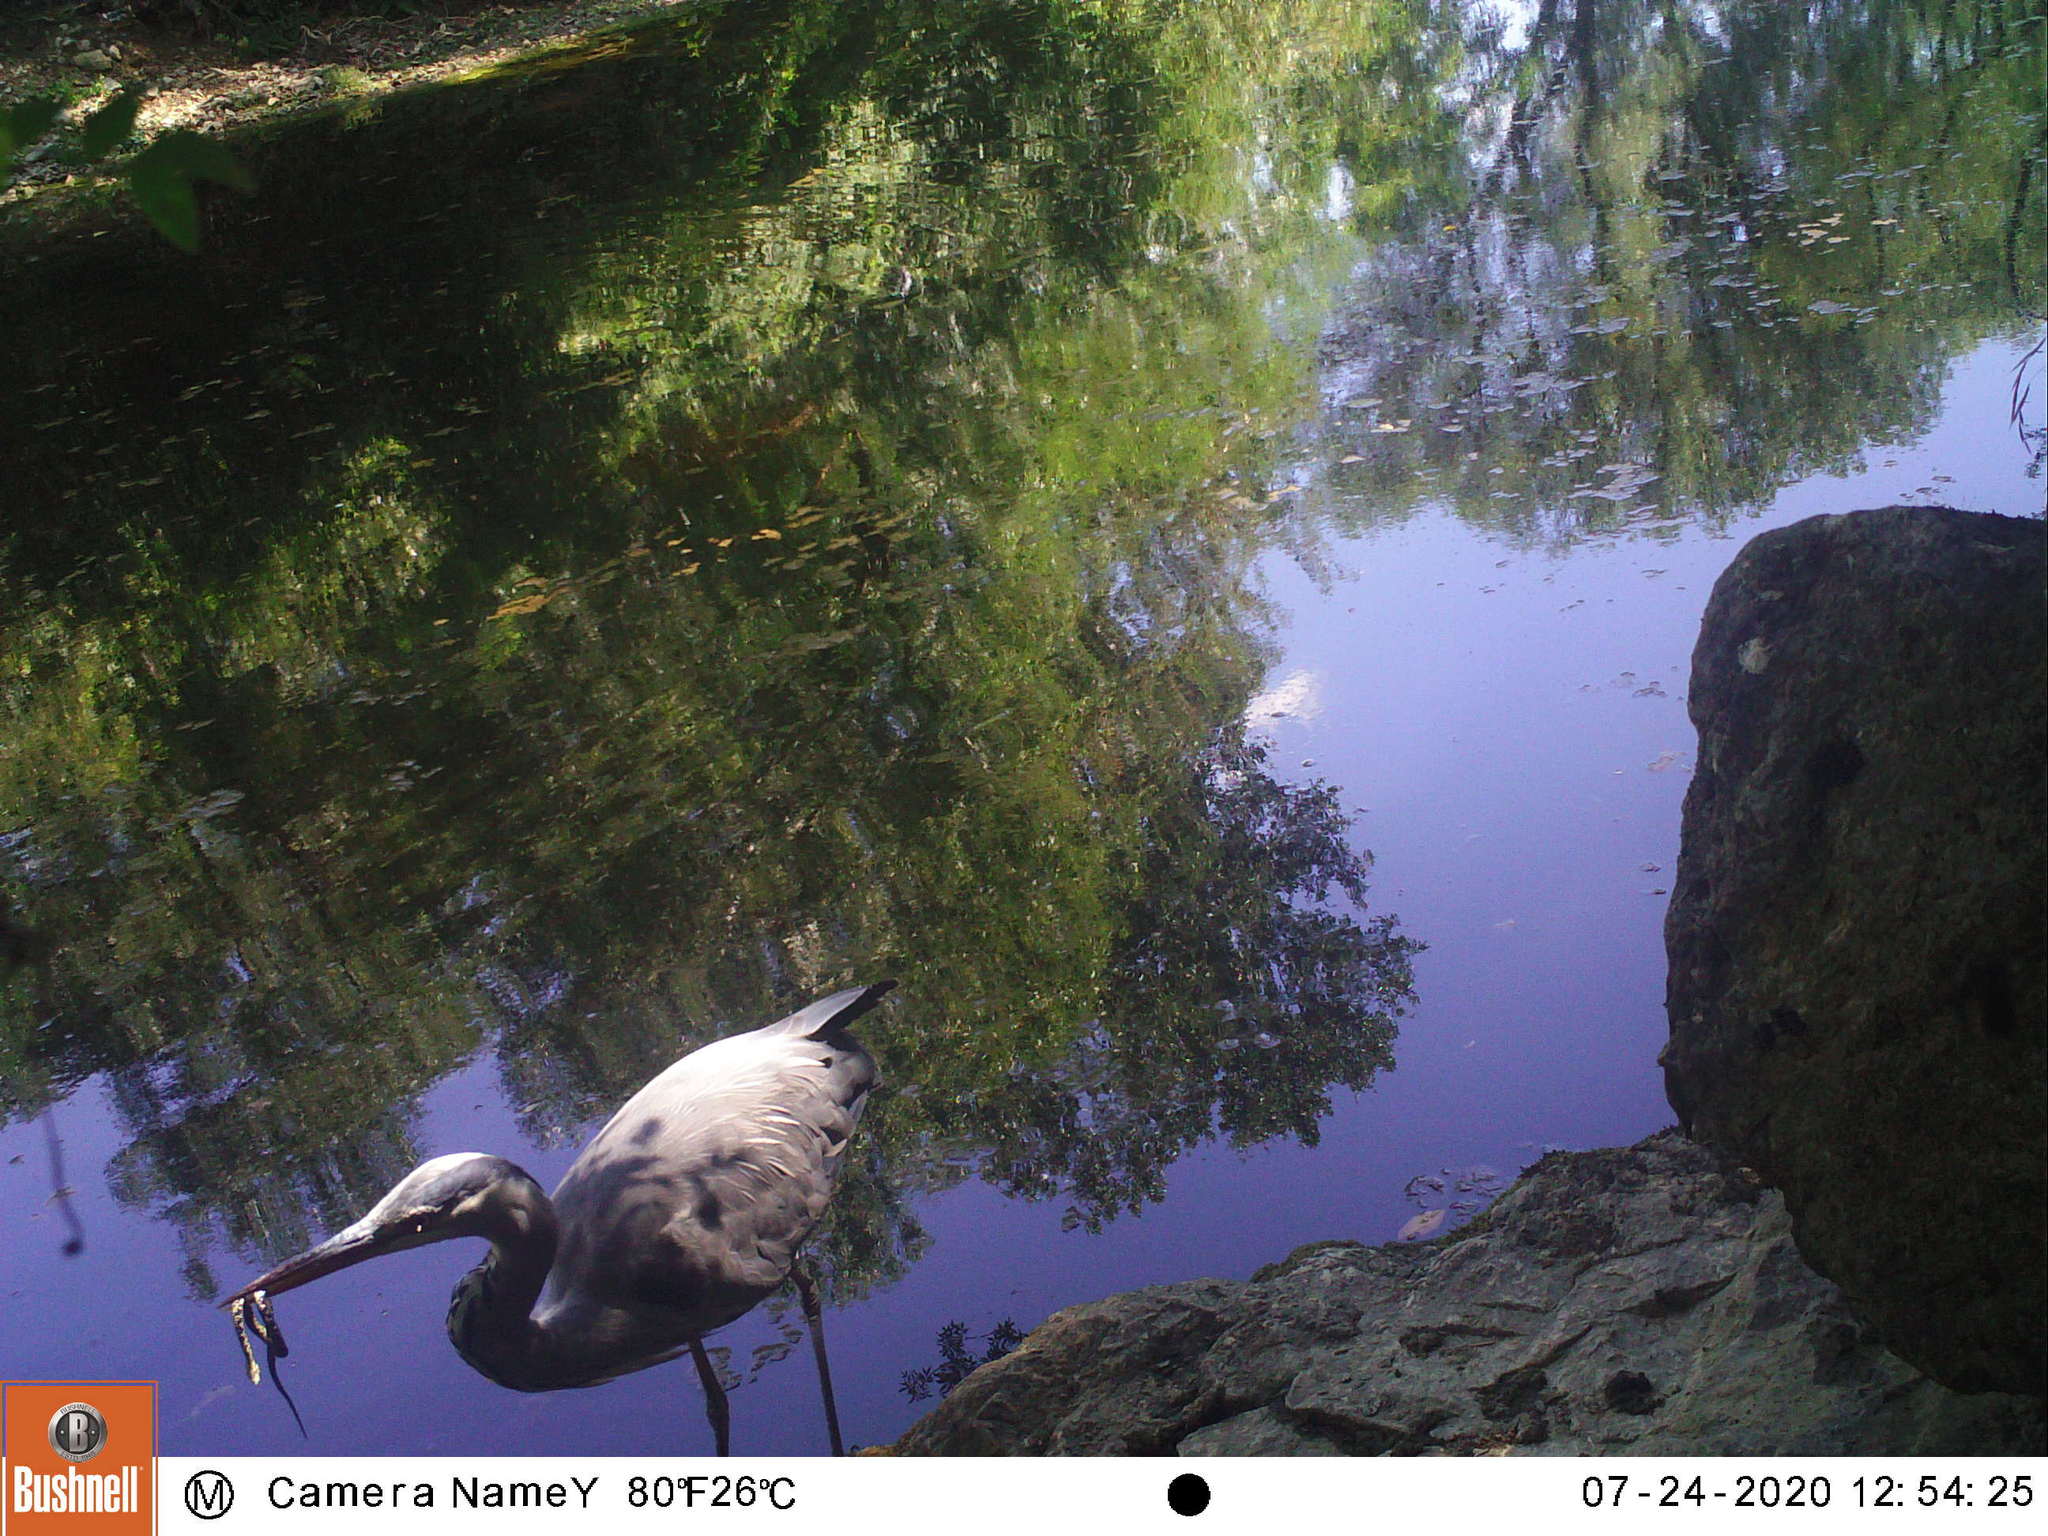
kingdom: Animalia
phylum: Chordata
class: Squamata
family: Colubridae
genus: Natrix
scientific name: Natrix maura
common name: Viperine water snake
